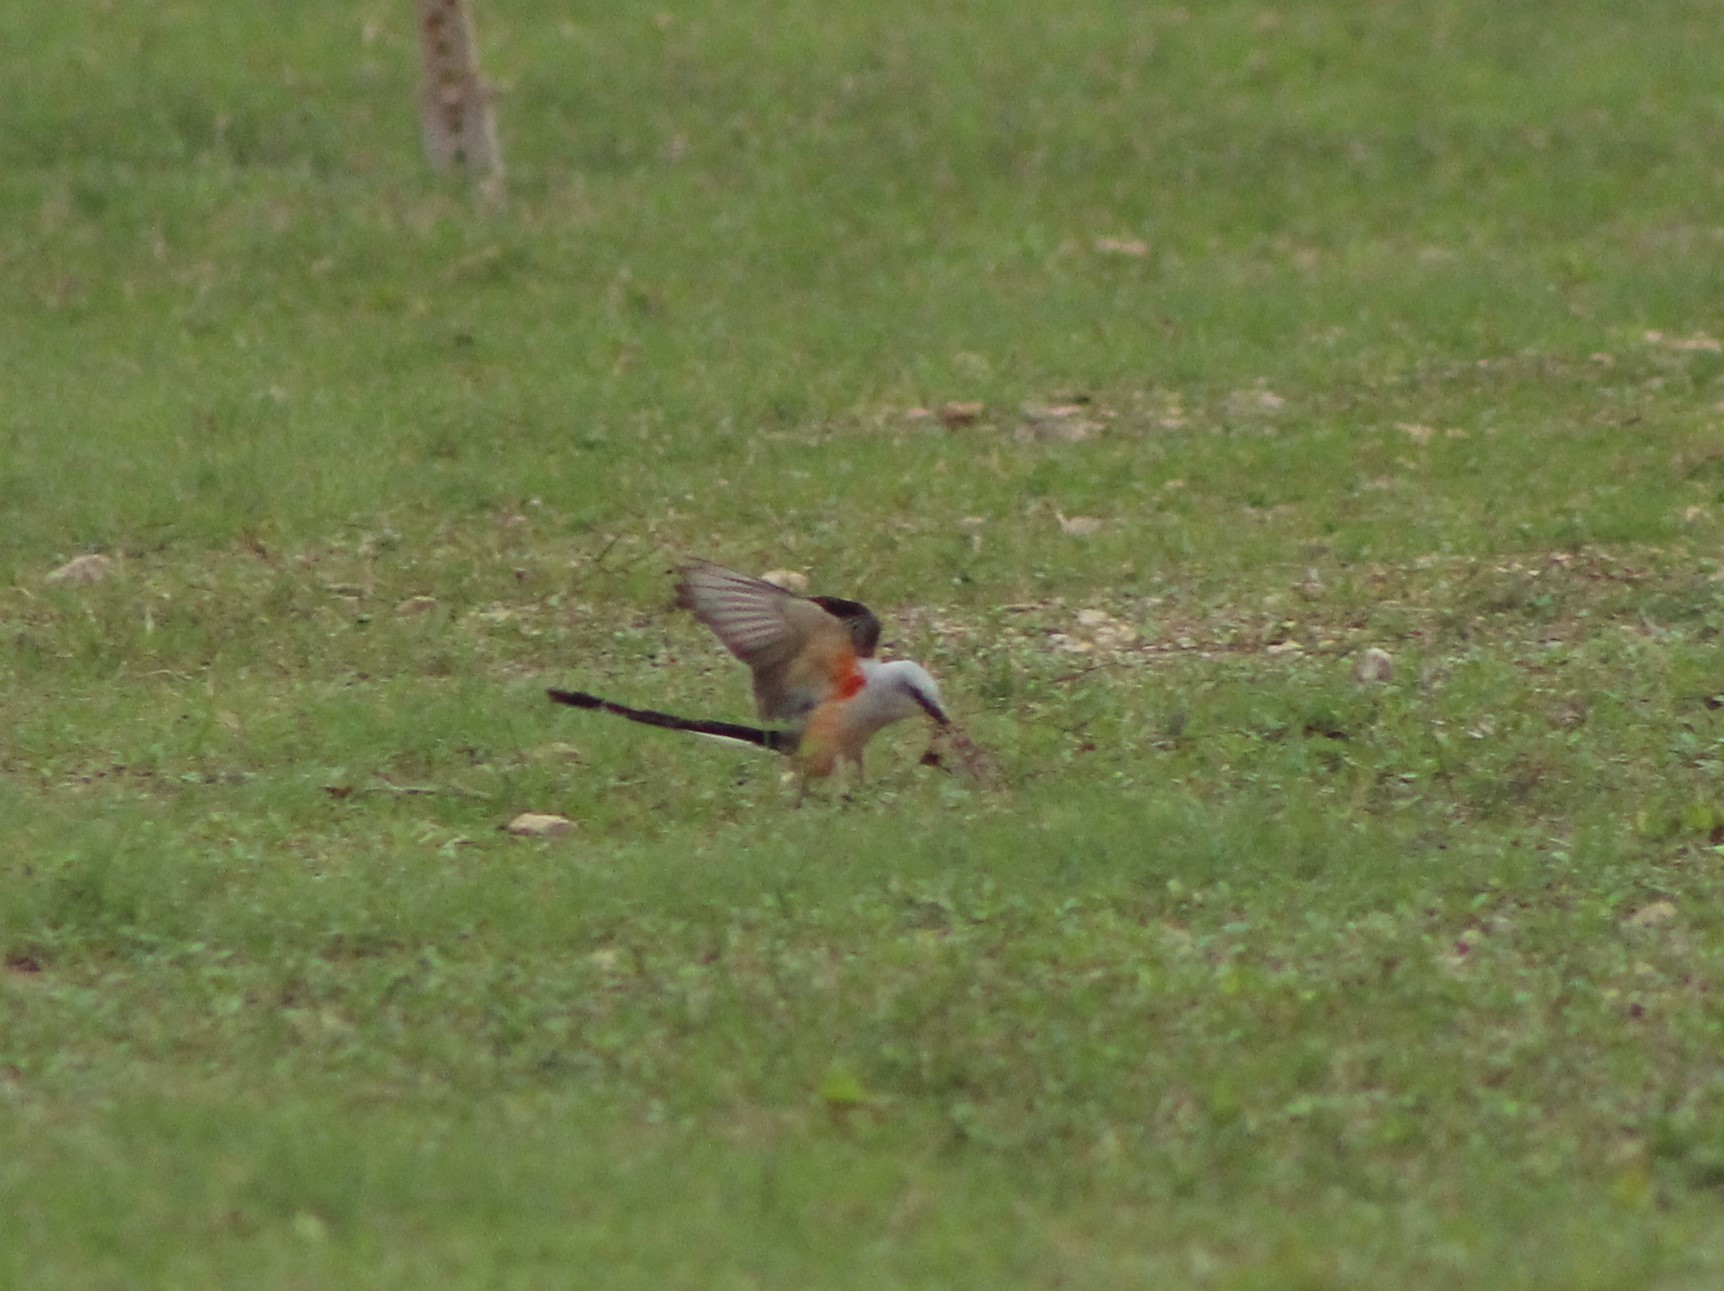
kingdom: Animalia
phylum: Chordata
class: Aves
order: Passeriformes
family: Tyrannidae
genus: Tyrannus
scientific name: Tyrannus forficatus
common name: Scissor-tailed flycatcher
